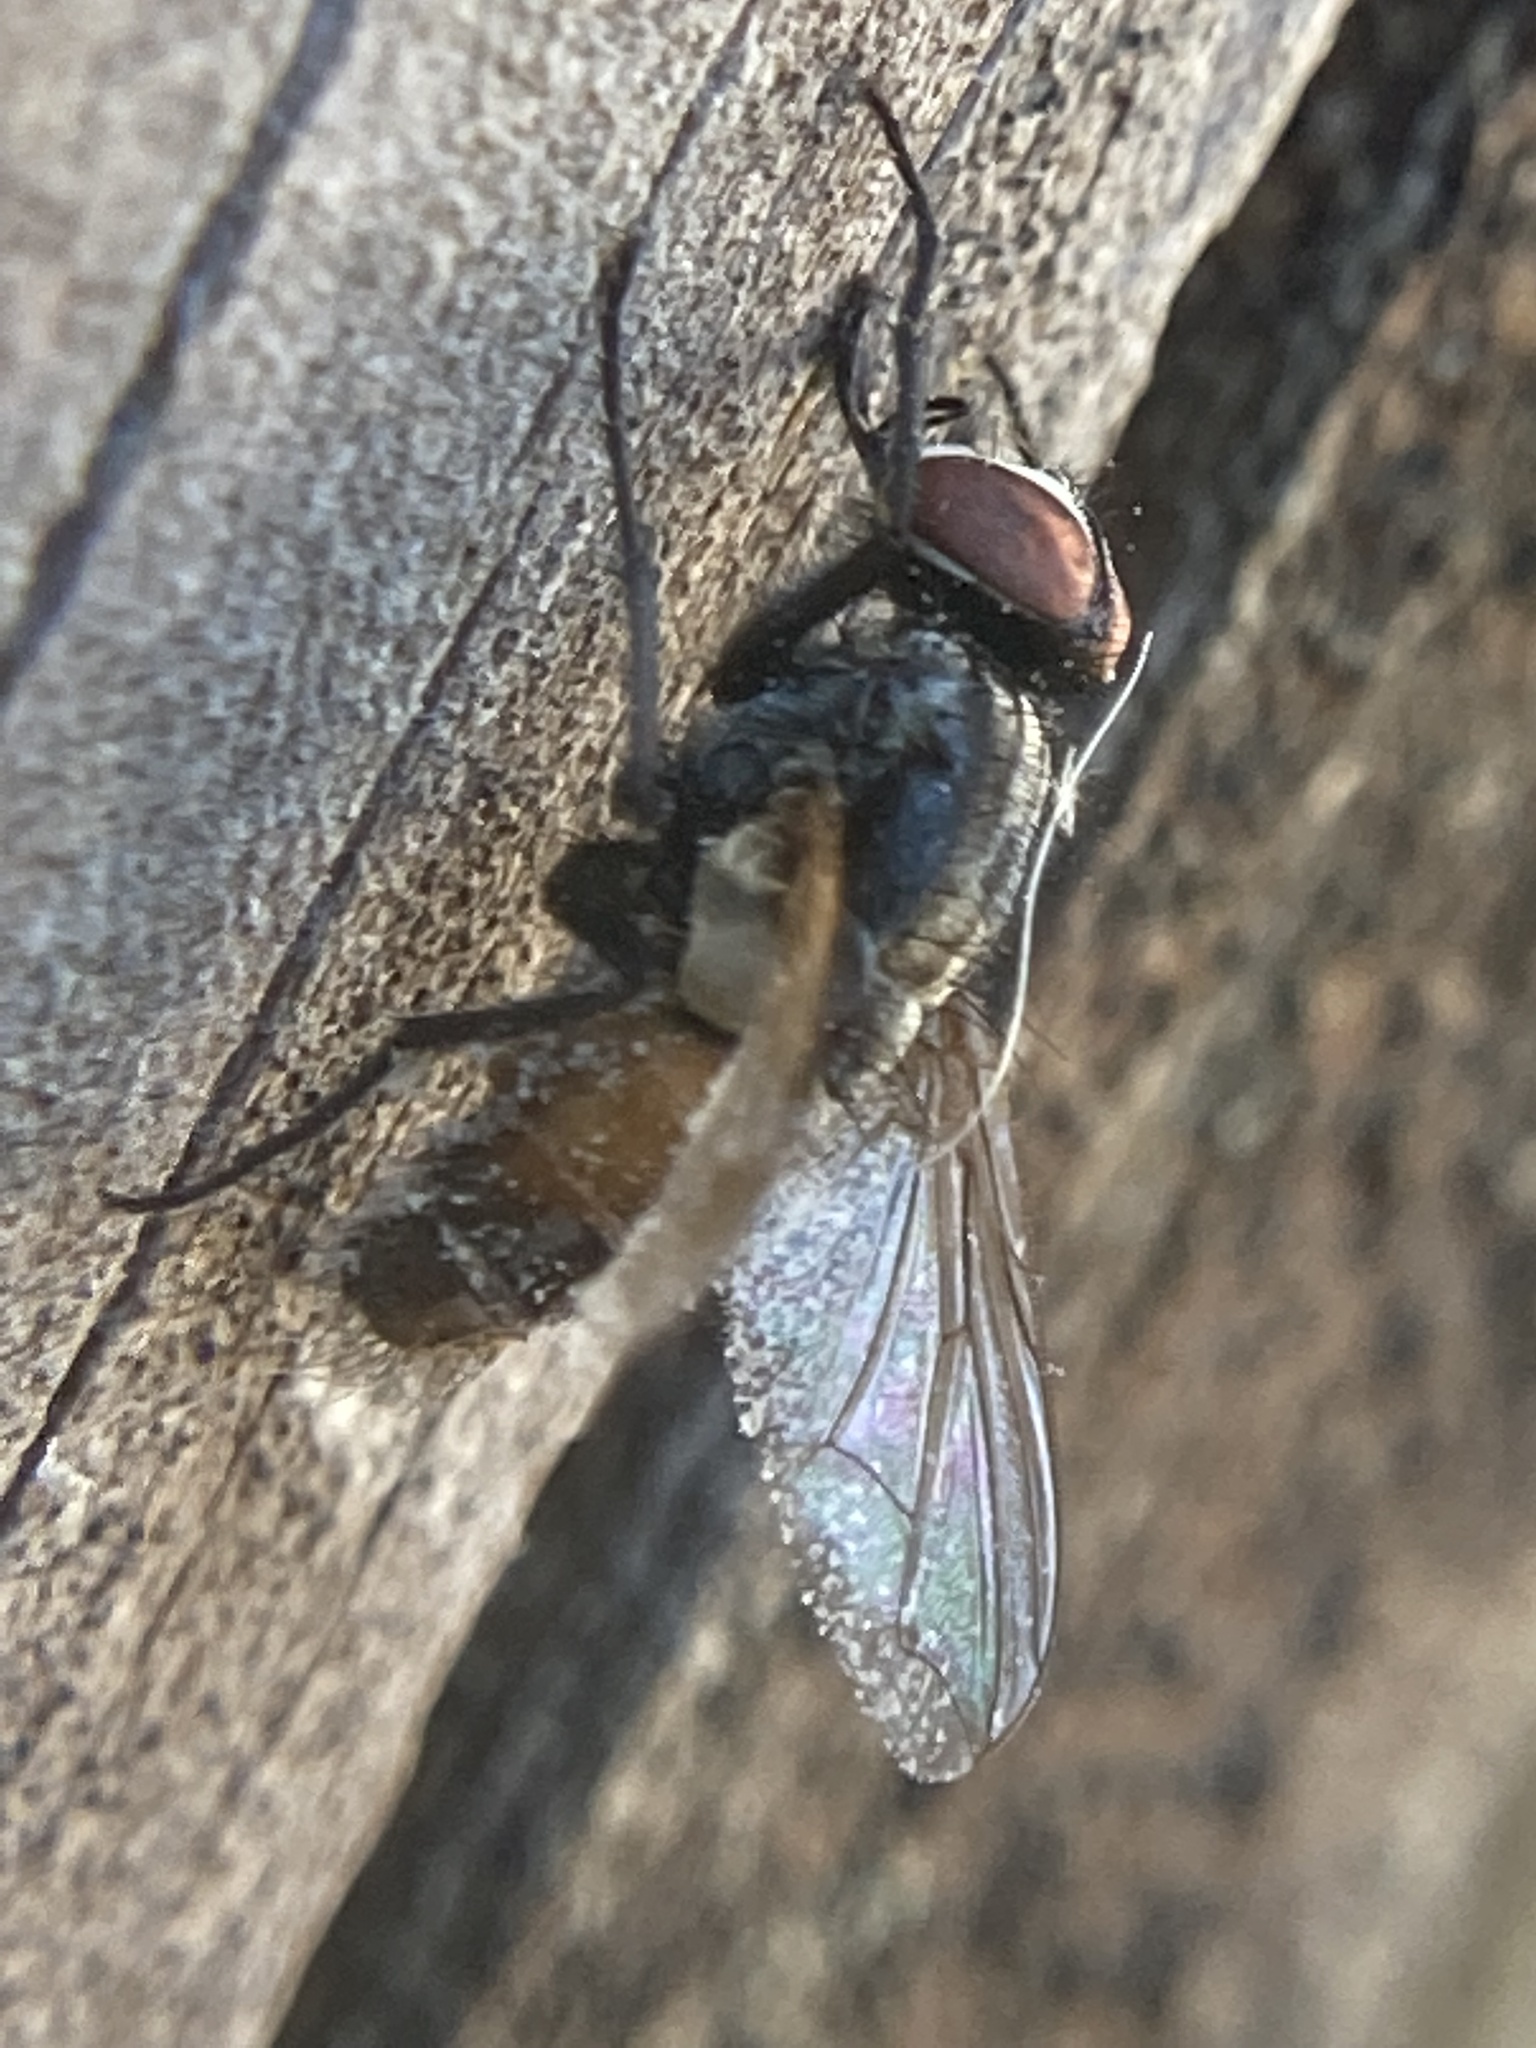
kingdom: Animalia
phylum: Arthropoda
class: Insecta
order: Diptera
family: Muscidae
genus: Musca
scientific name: Musca domestica
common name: House fly
